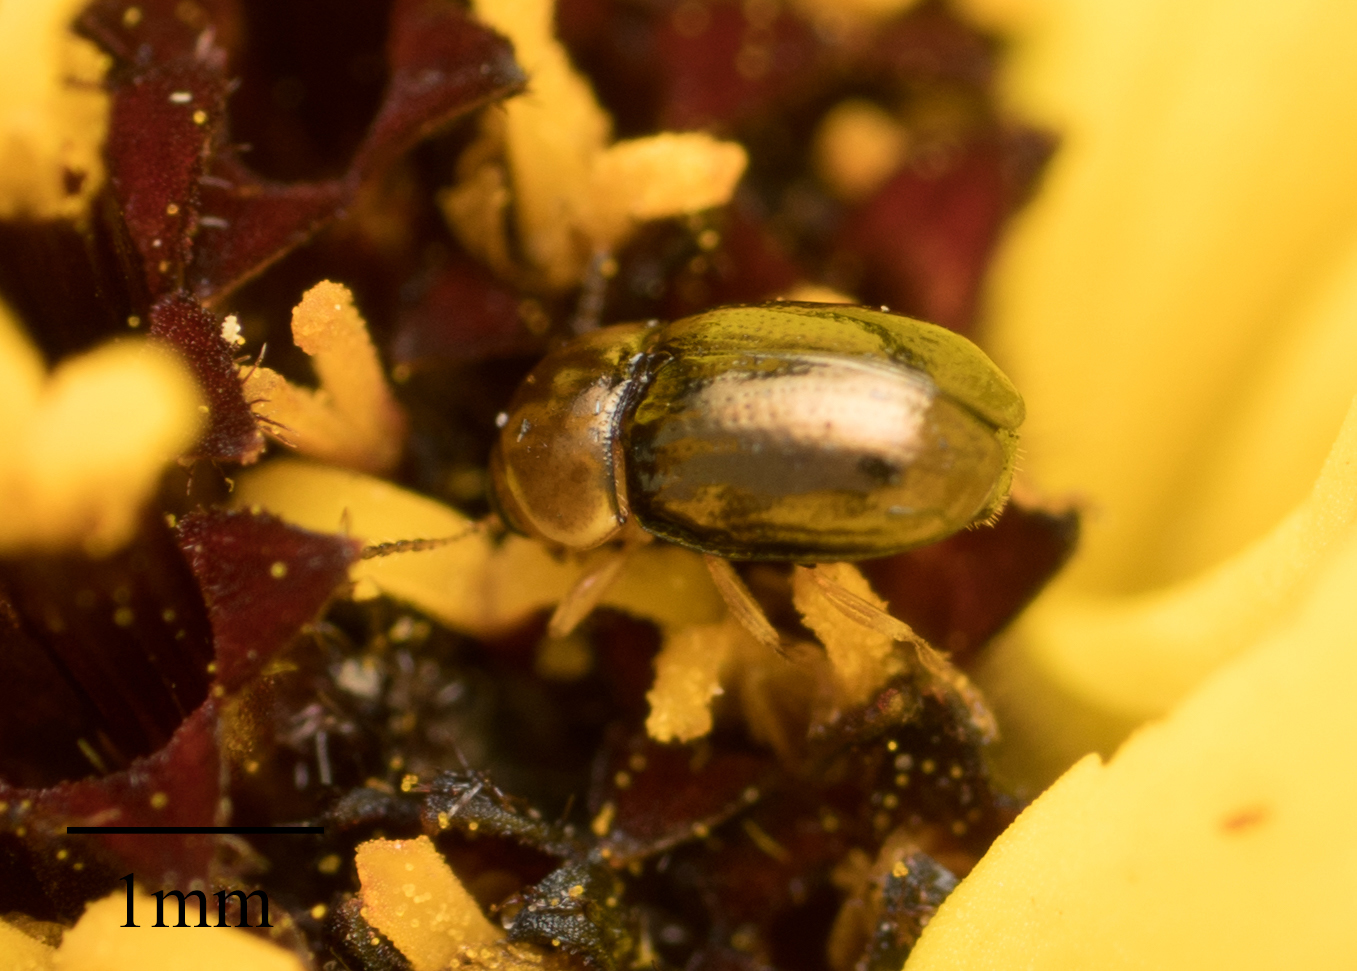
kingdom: Animalia
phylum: Arthropoda
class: Insecta
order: Coleoptera
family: Chrysomelidae
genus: Diachus
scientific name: Diachus auratus
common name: Bronze leaf beetle
